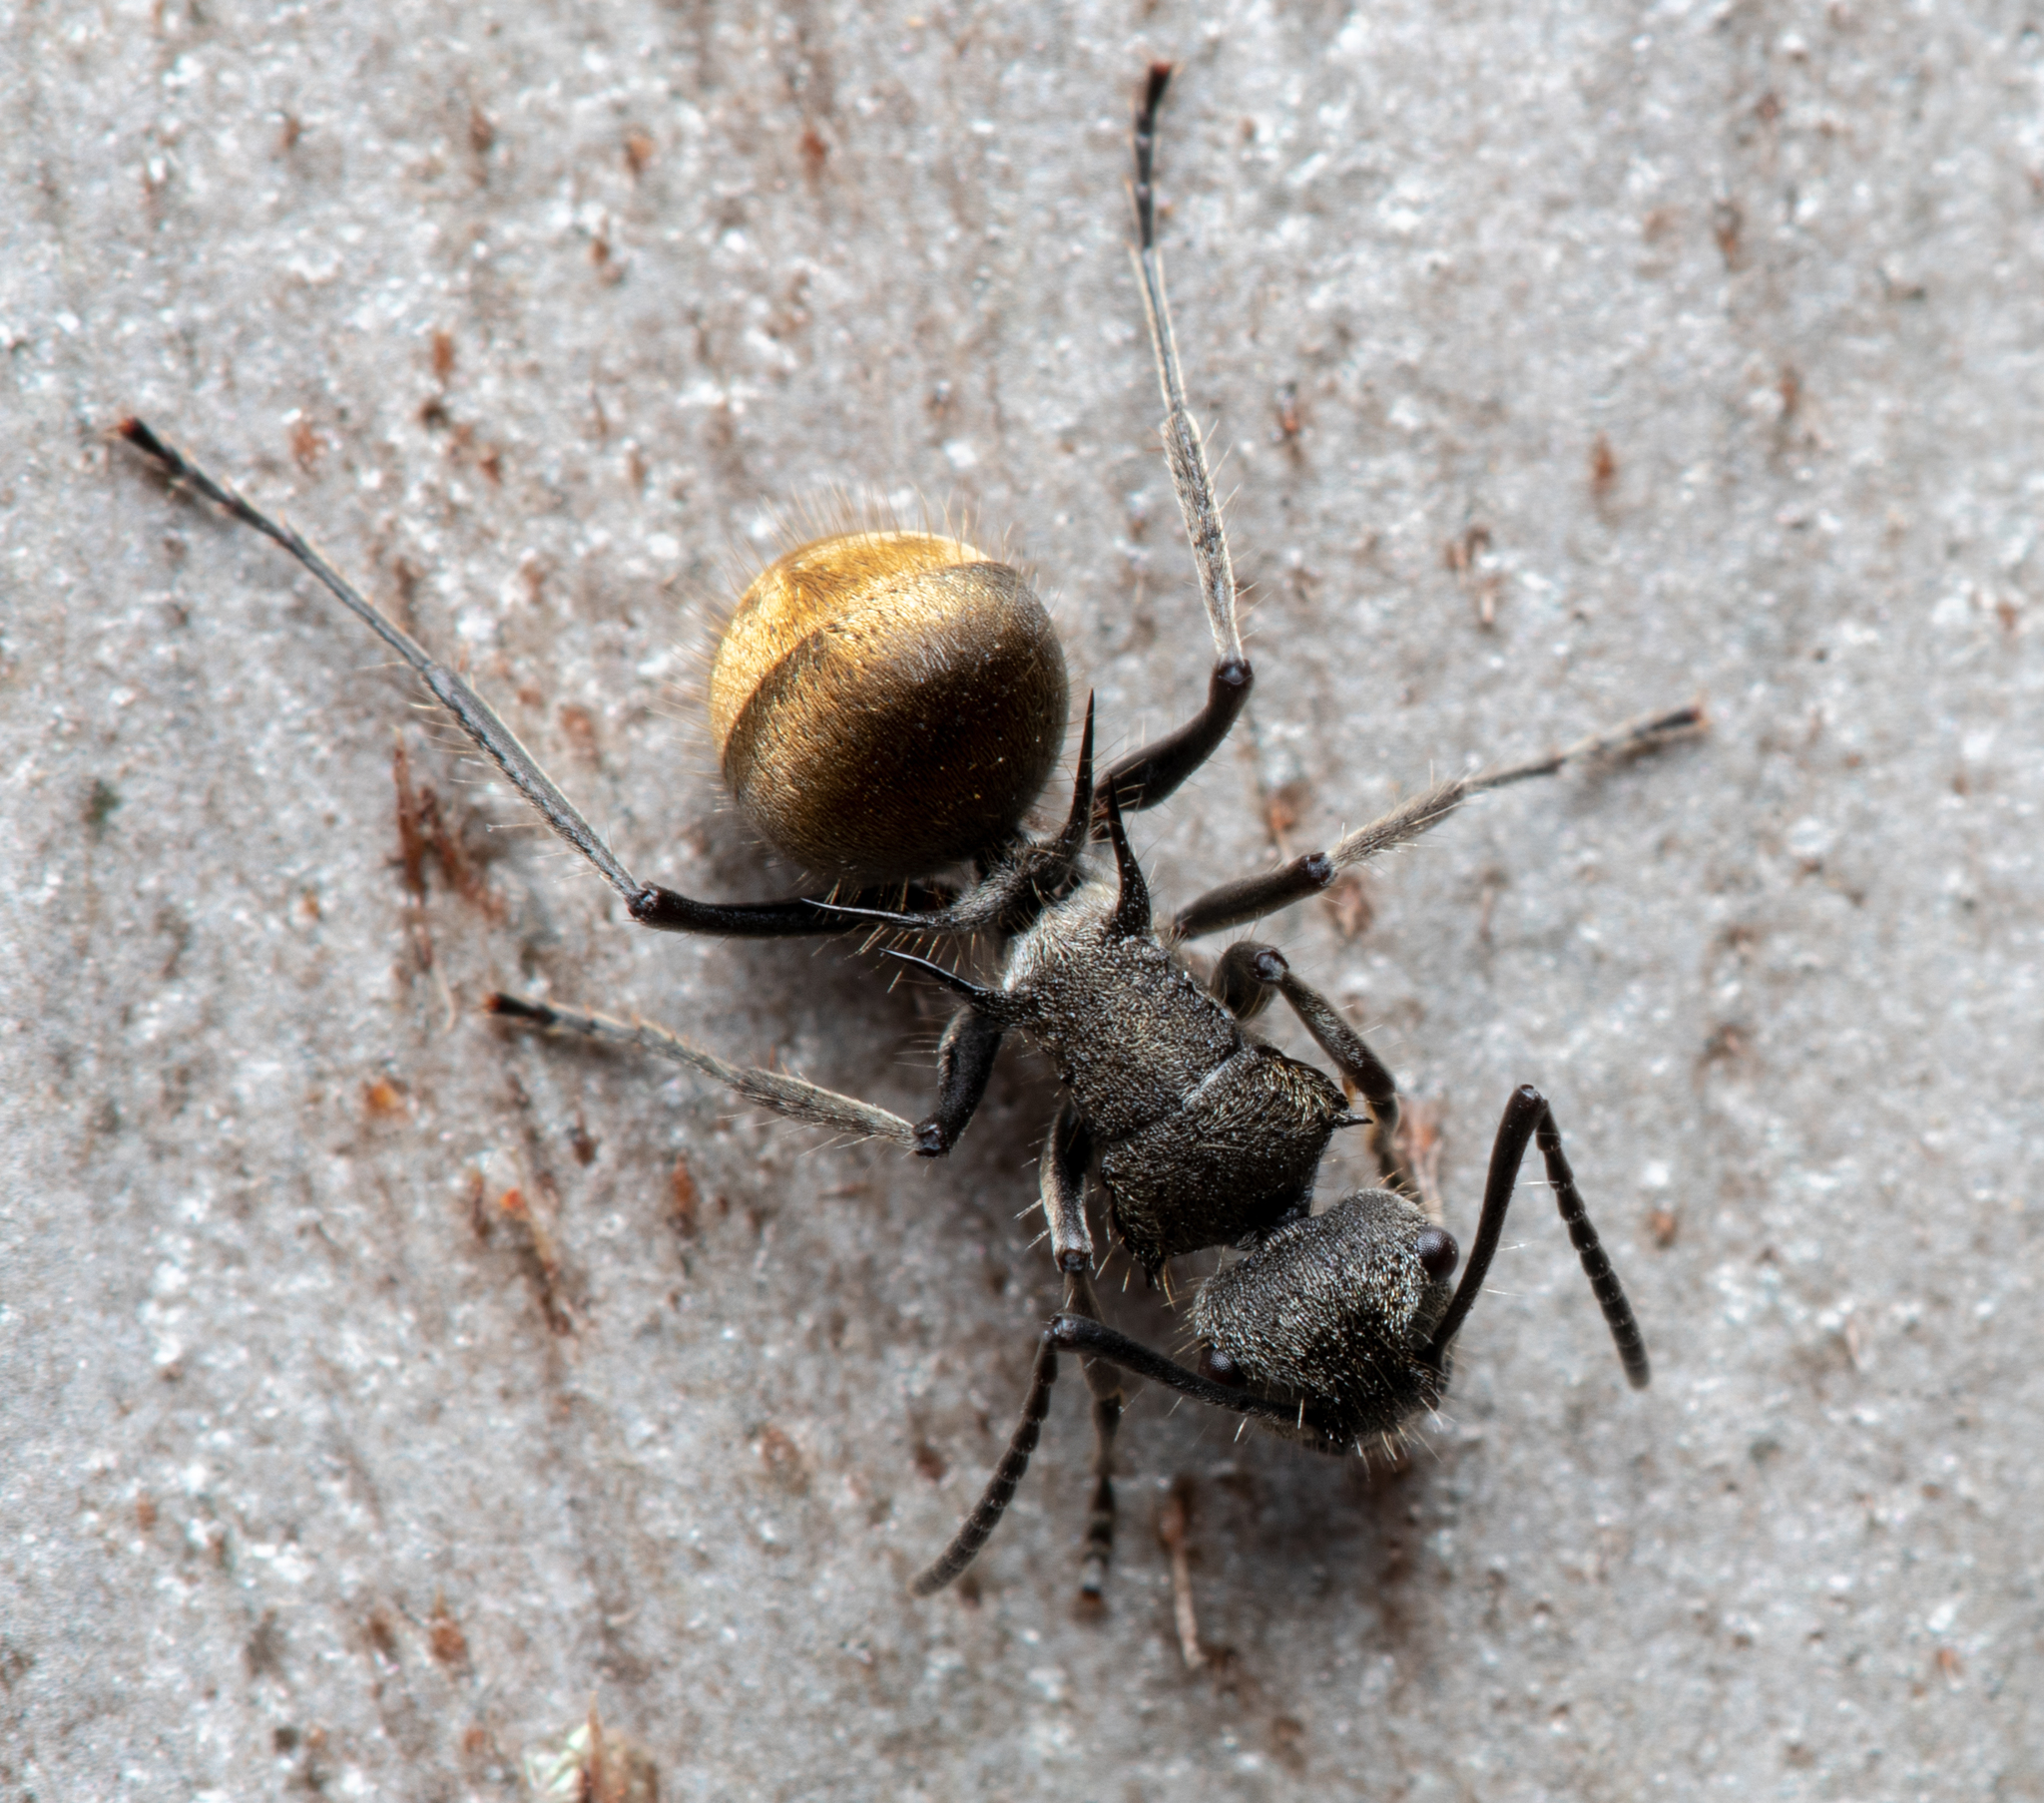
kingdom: Animalia
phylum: Arthropoda
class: Insecta
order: Hymenoptera
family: Formicidae
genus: Polyrhachis
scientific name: Polyrhachis aurea
